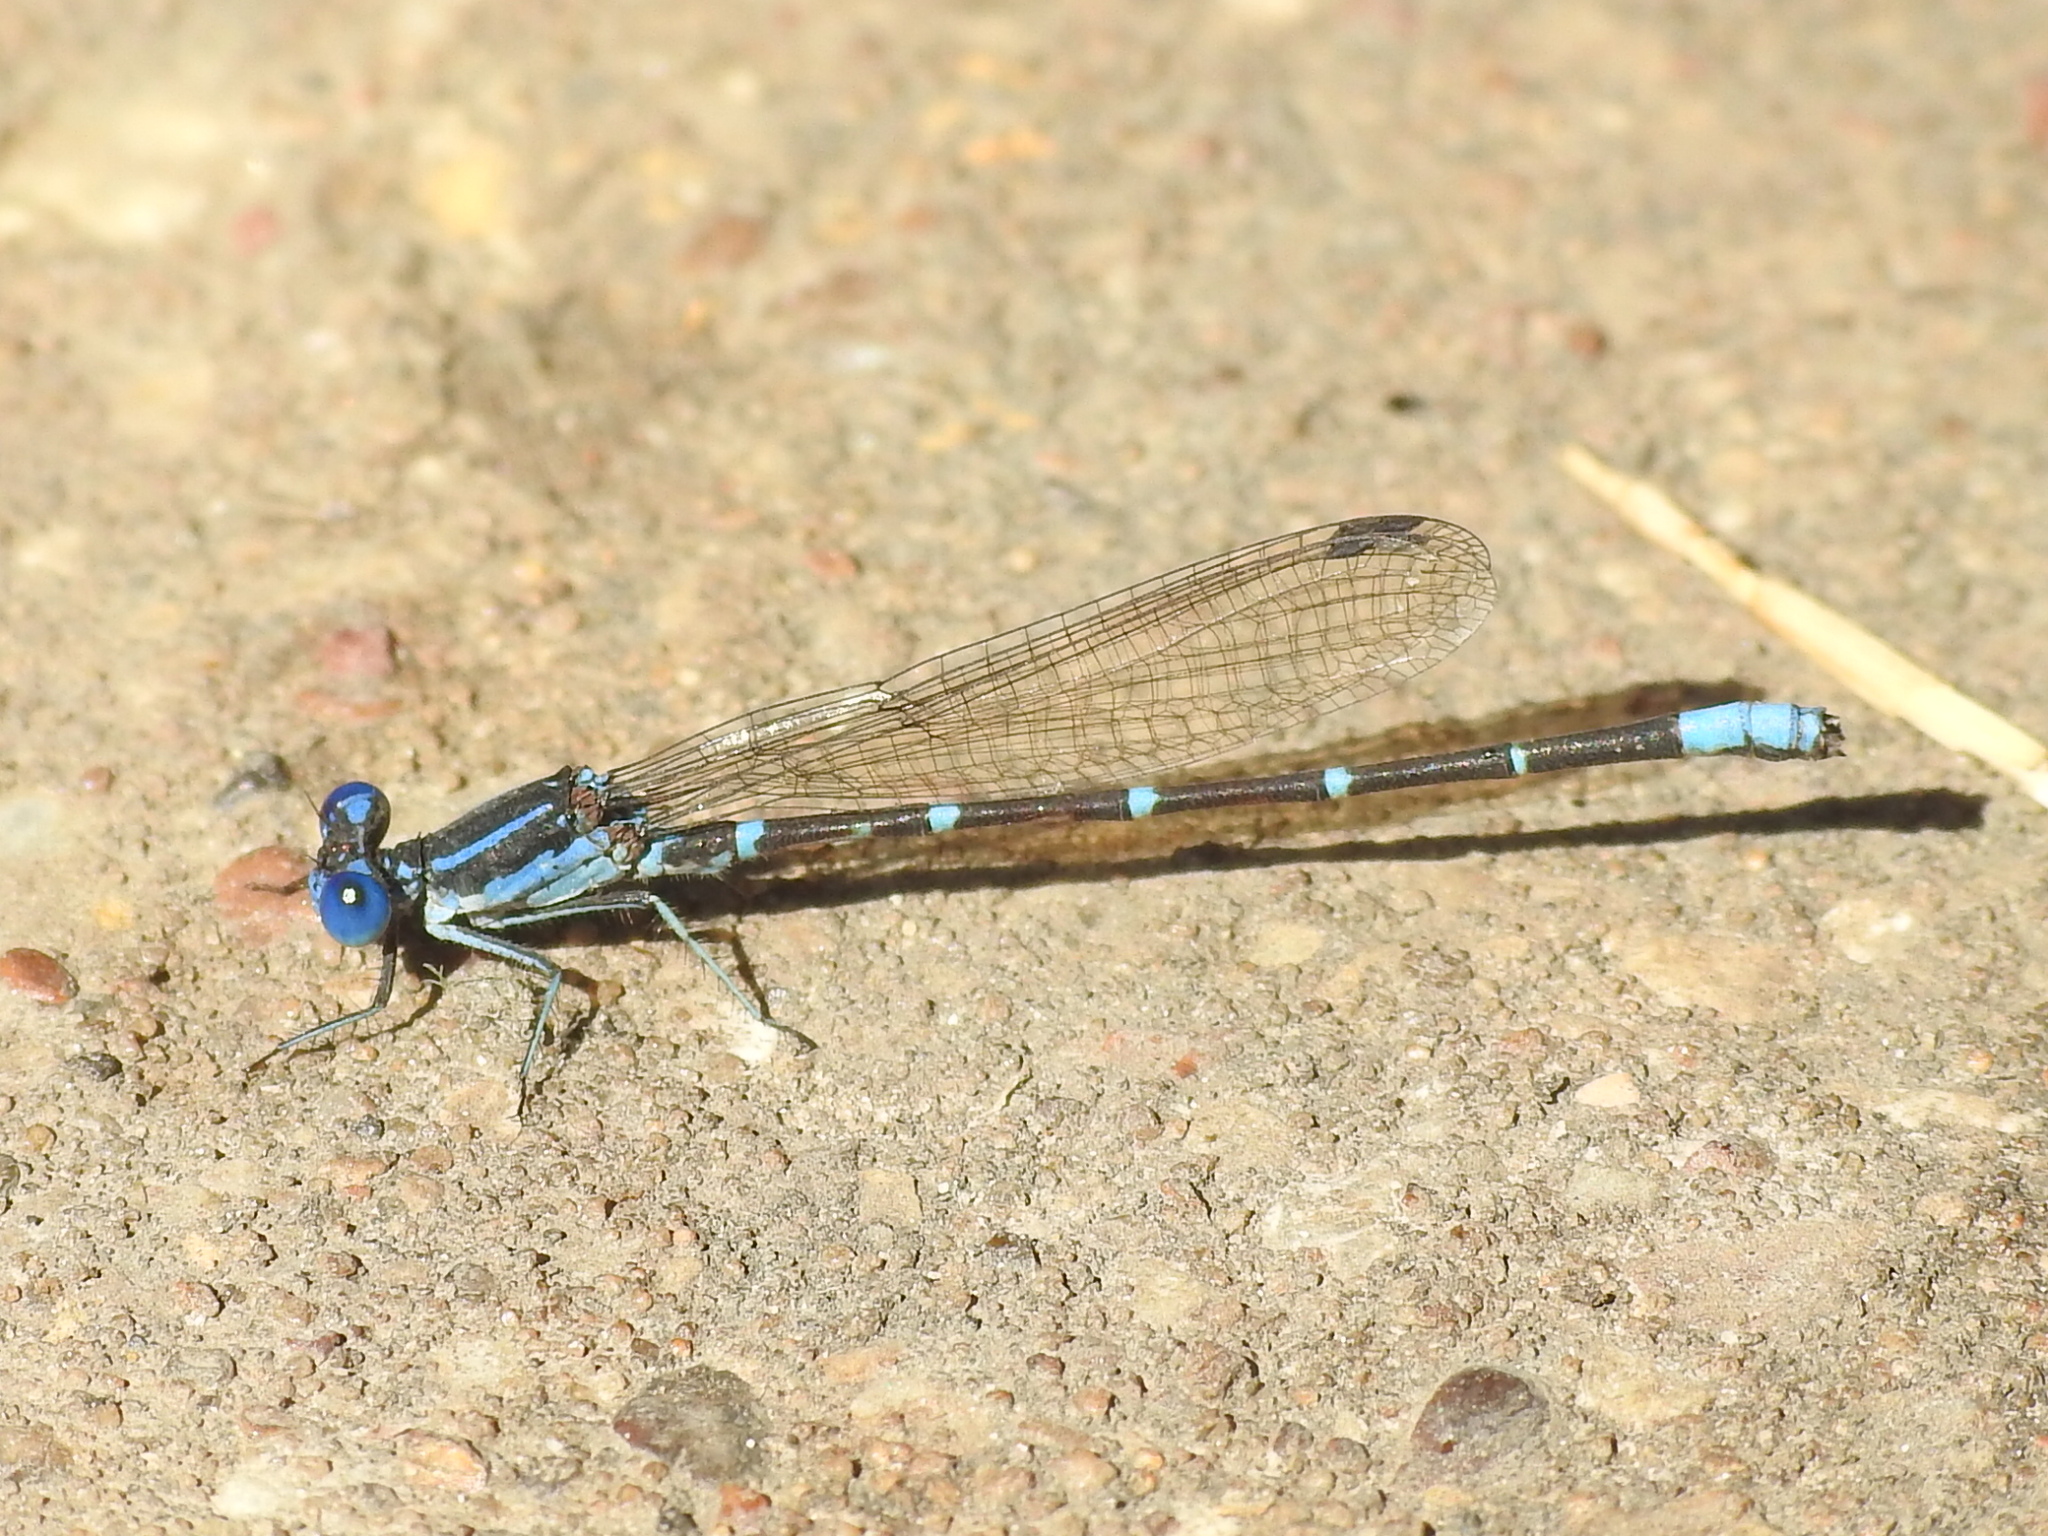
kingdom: Animalia
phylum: Arthropoda
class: Insecta
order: Odonata
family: Coenagrionidae
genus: Argia
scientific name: Argia sedula
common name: Blue-ringed dancer
